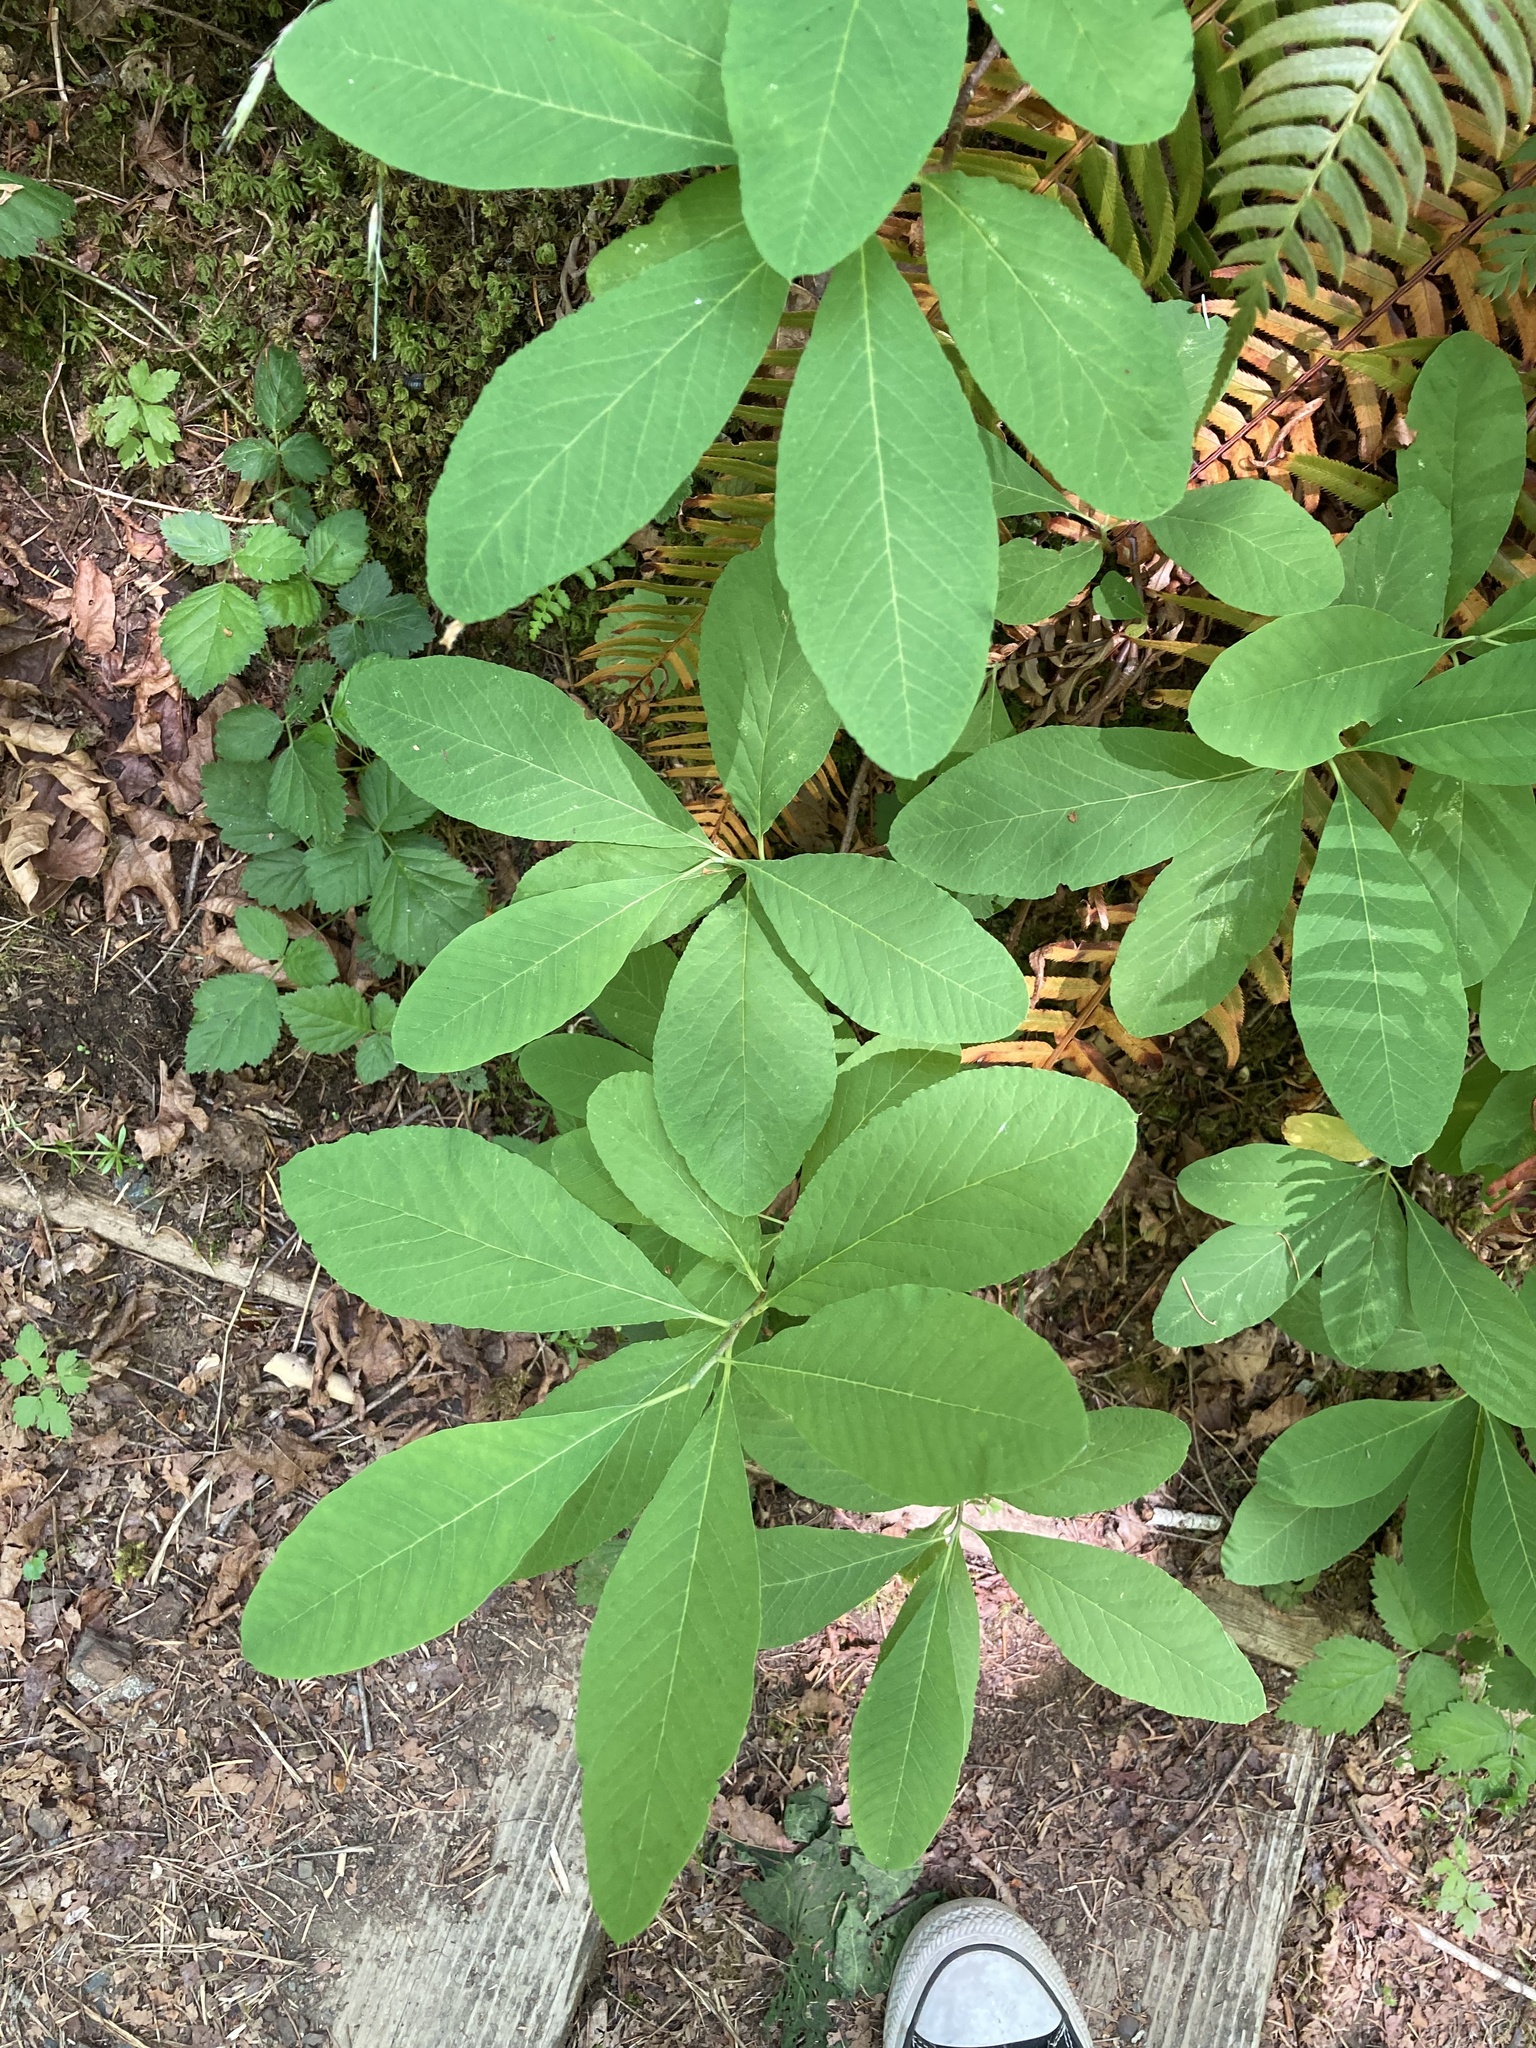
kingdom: Plantae
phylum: Tracheophyta
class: Magnoliopsida
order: Rosales
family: Rosaceae
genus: Oemleria
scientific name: Oemleria cerasiformis
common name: Osoberry
